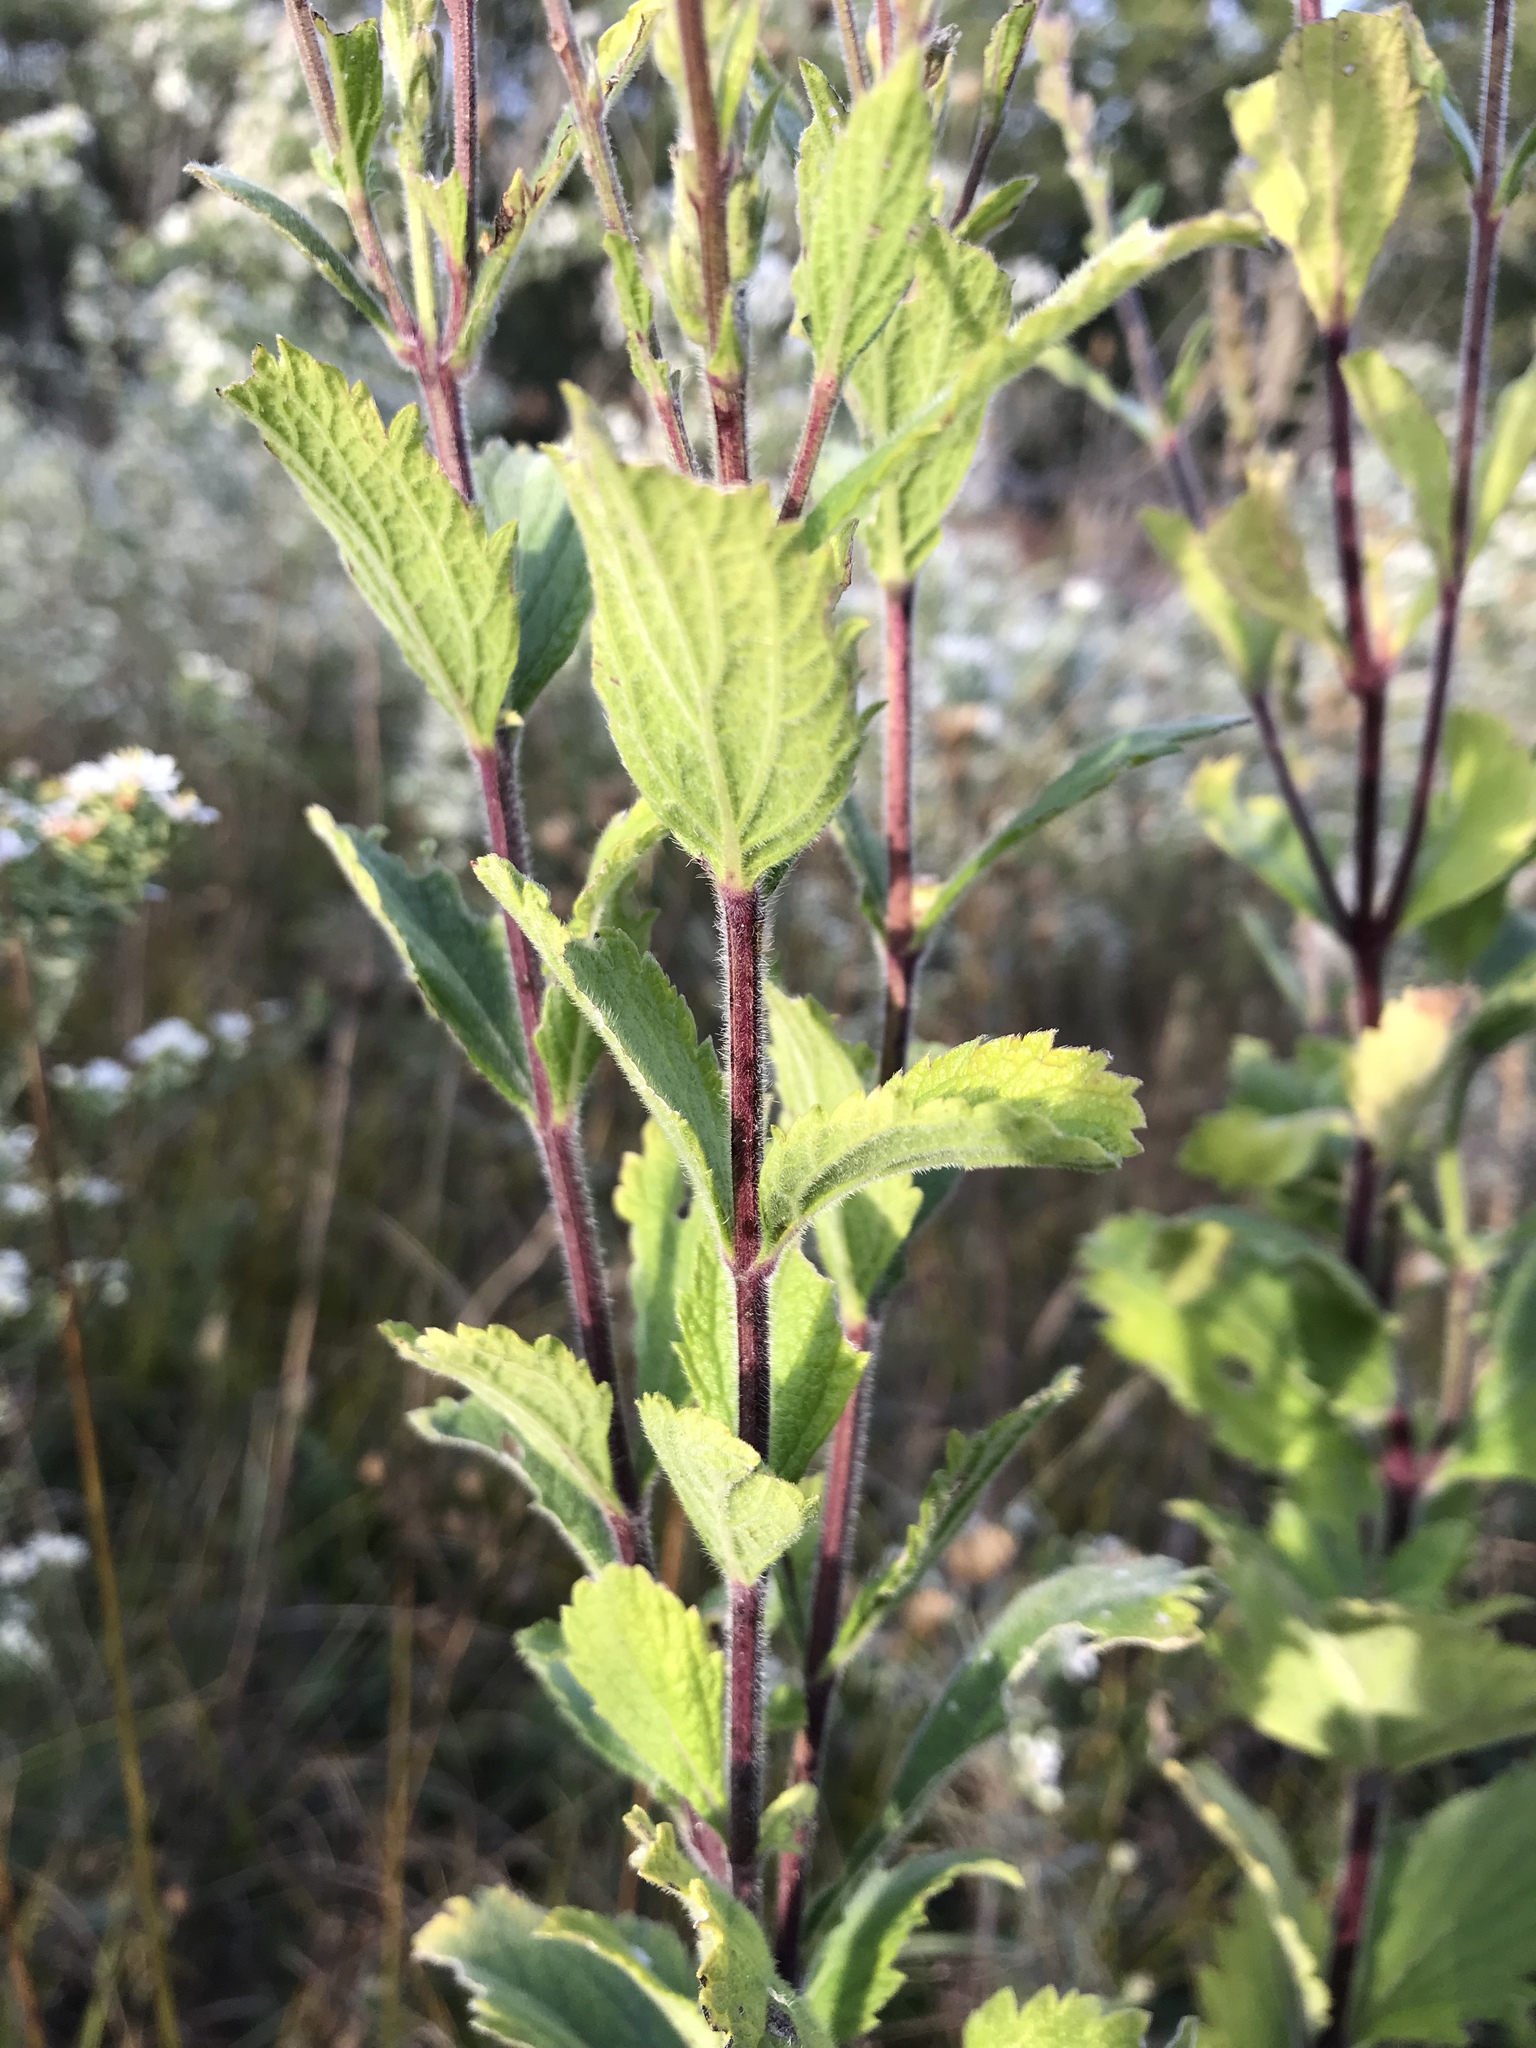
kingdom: Plantae
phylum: Tracheophyta
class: Magnoliopsida
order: Lamiales
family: Verbenaceae
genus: Verbena
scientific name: Verbena stricta
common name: Hoary vervain
